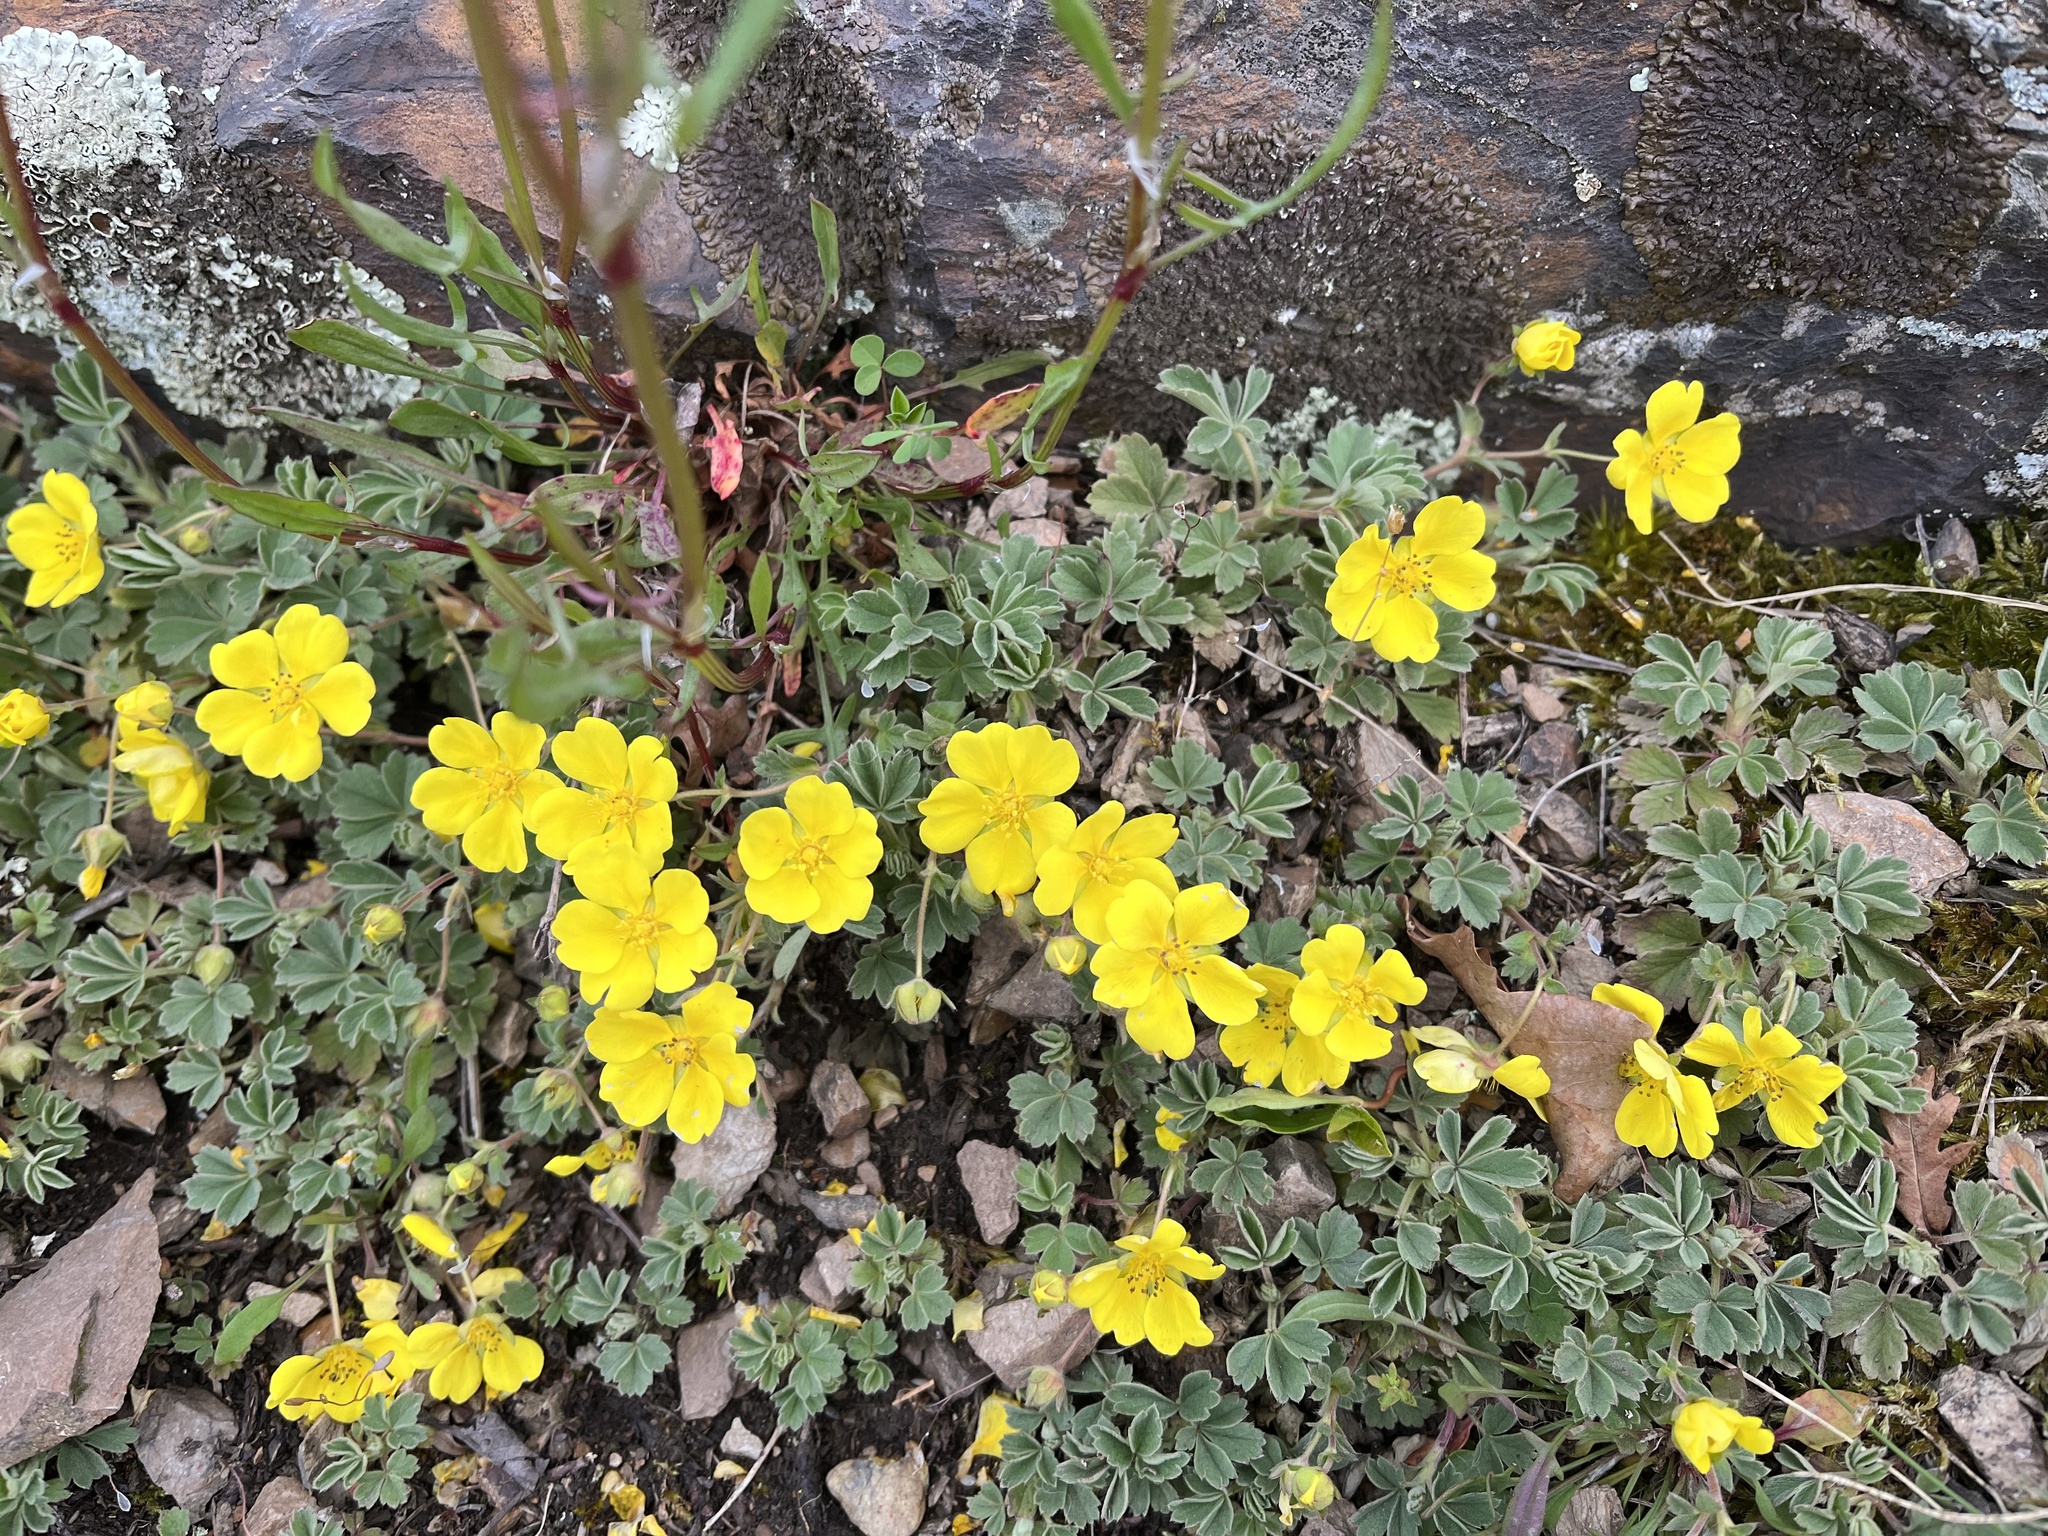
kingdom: Plantae
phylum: Tracheophyta
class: Magnoliopsida
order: Rosales
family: Rosaceae
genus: Potentilla
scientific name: Potentilla incana
